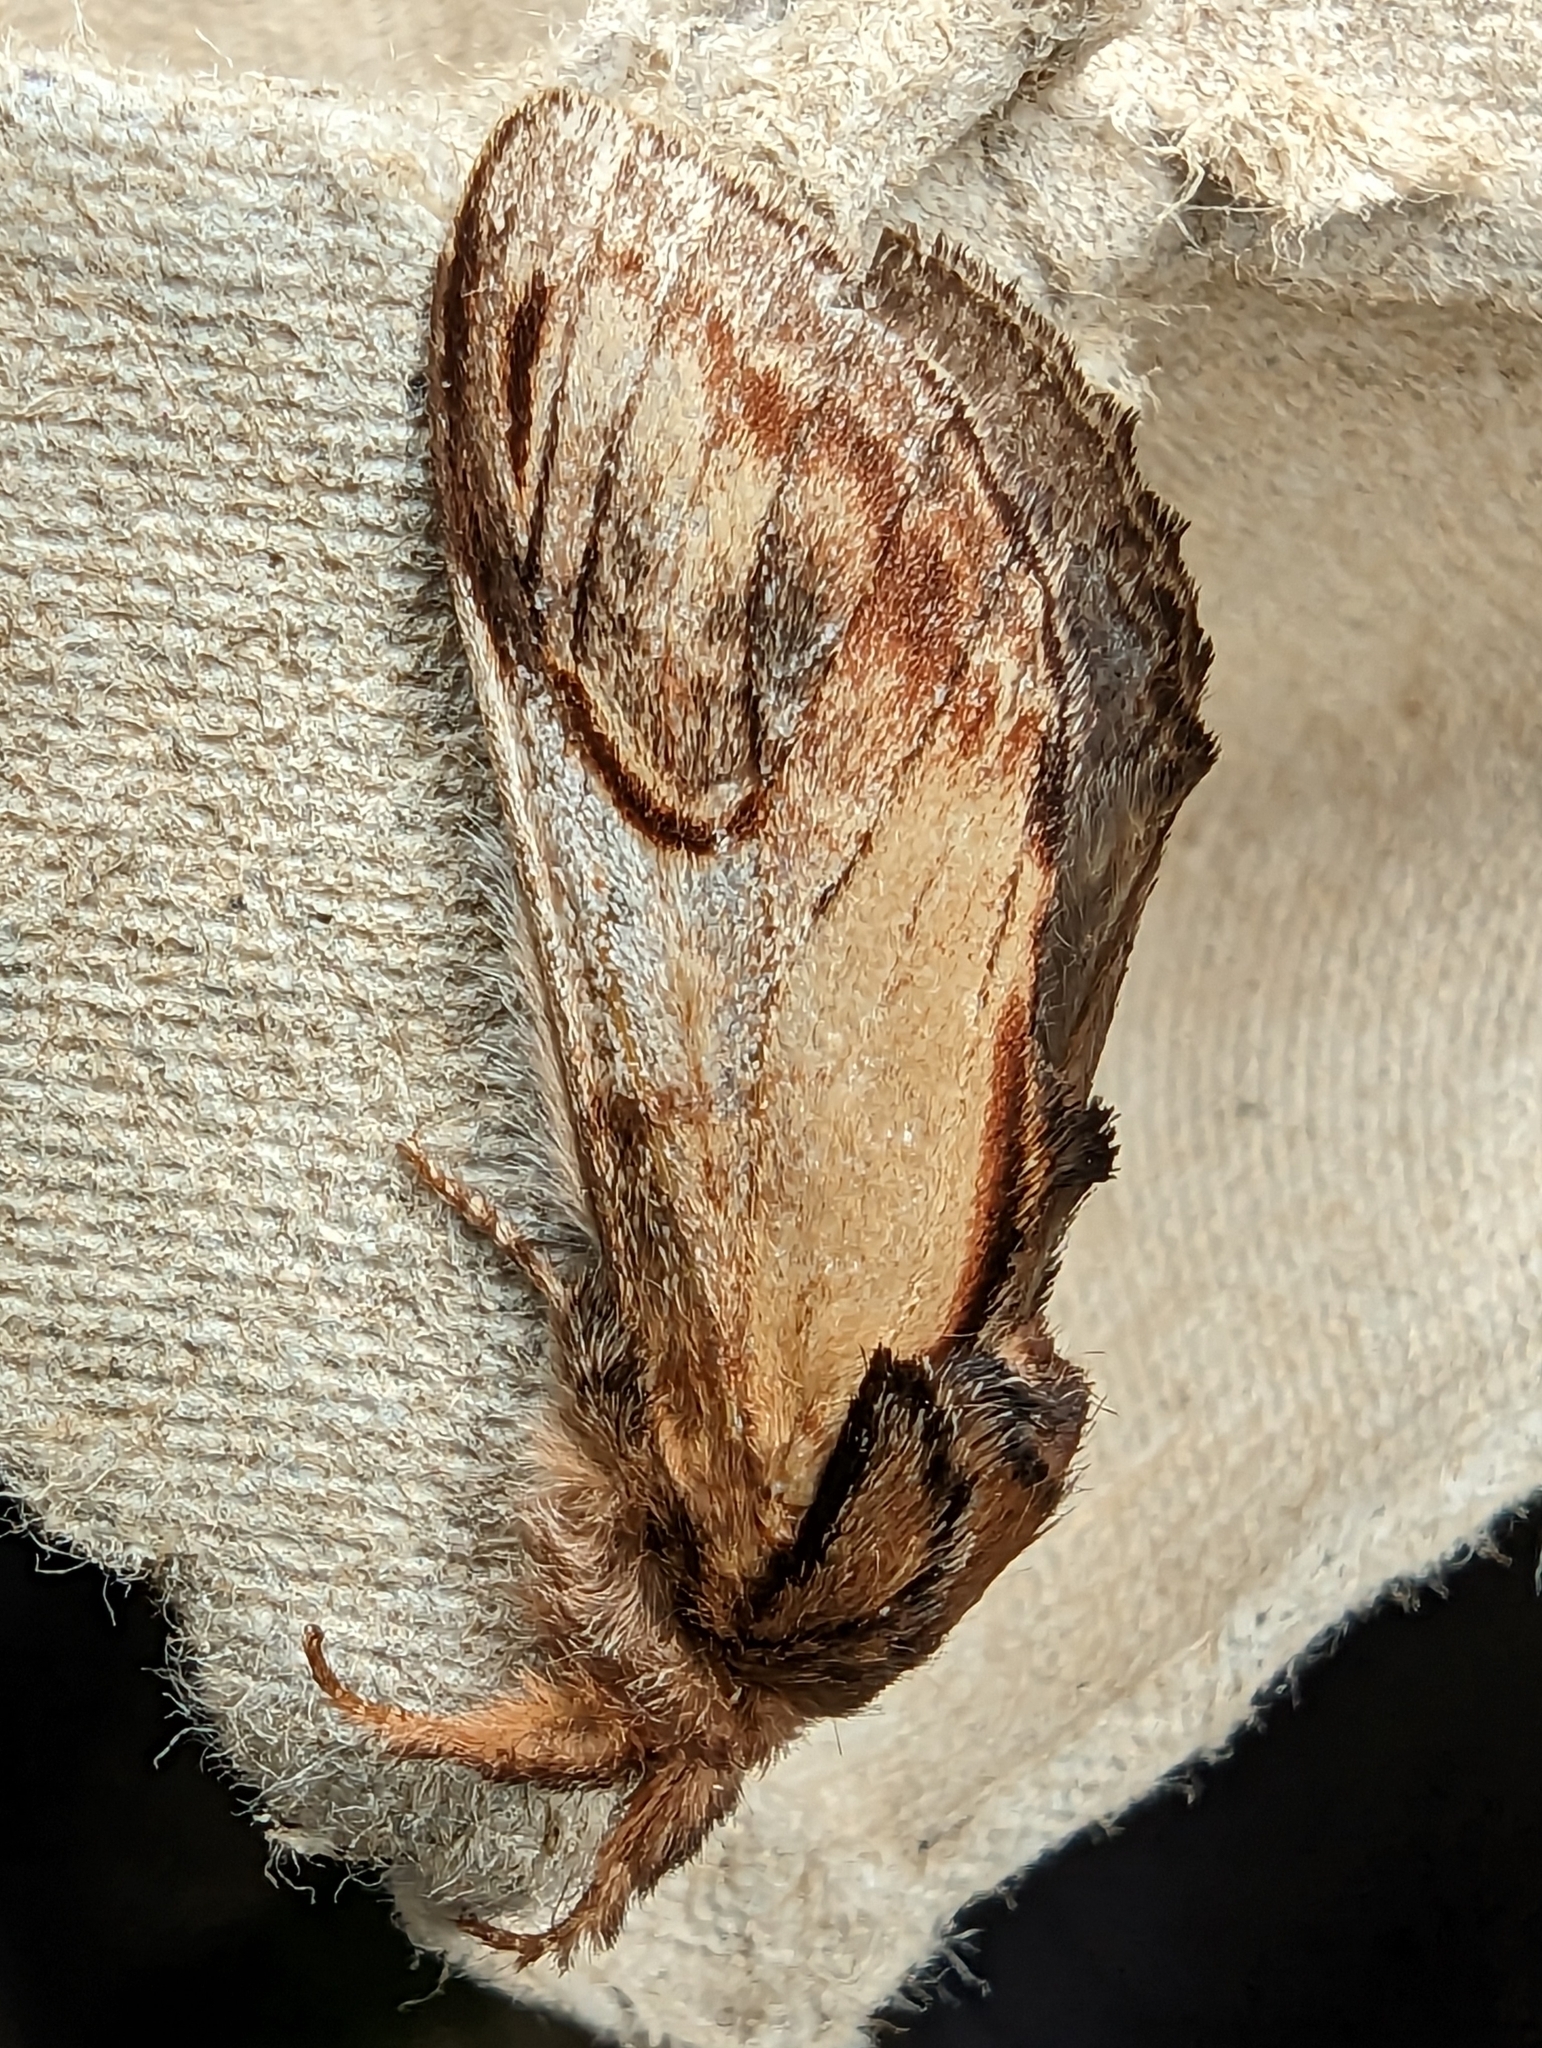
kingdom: Animalia
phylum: Arthropoda
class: Insecta
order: Lepidoptera
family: Notodontidae
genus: Notodonta
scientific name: Notodonta ziczac
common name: Pebble prominent
